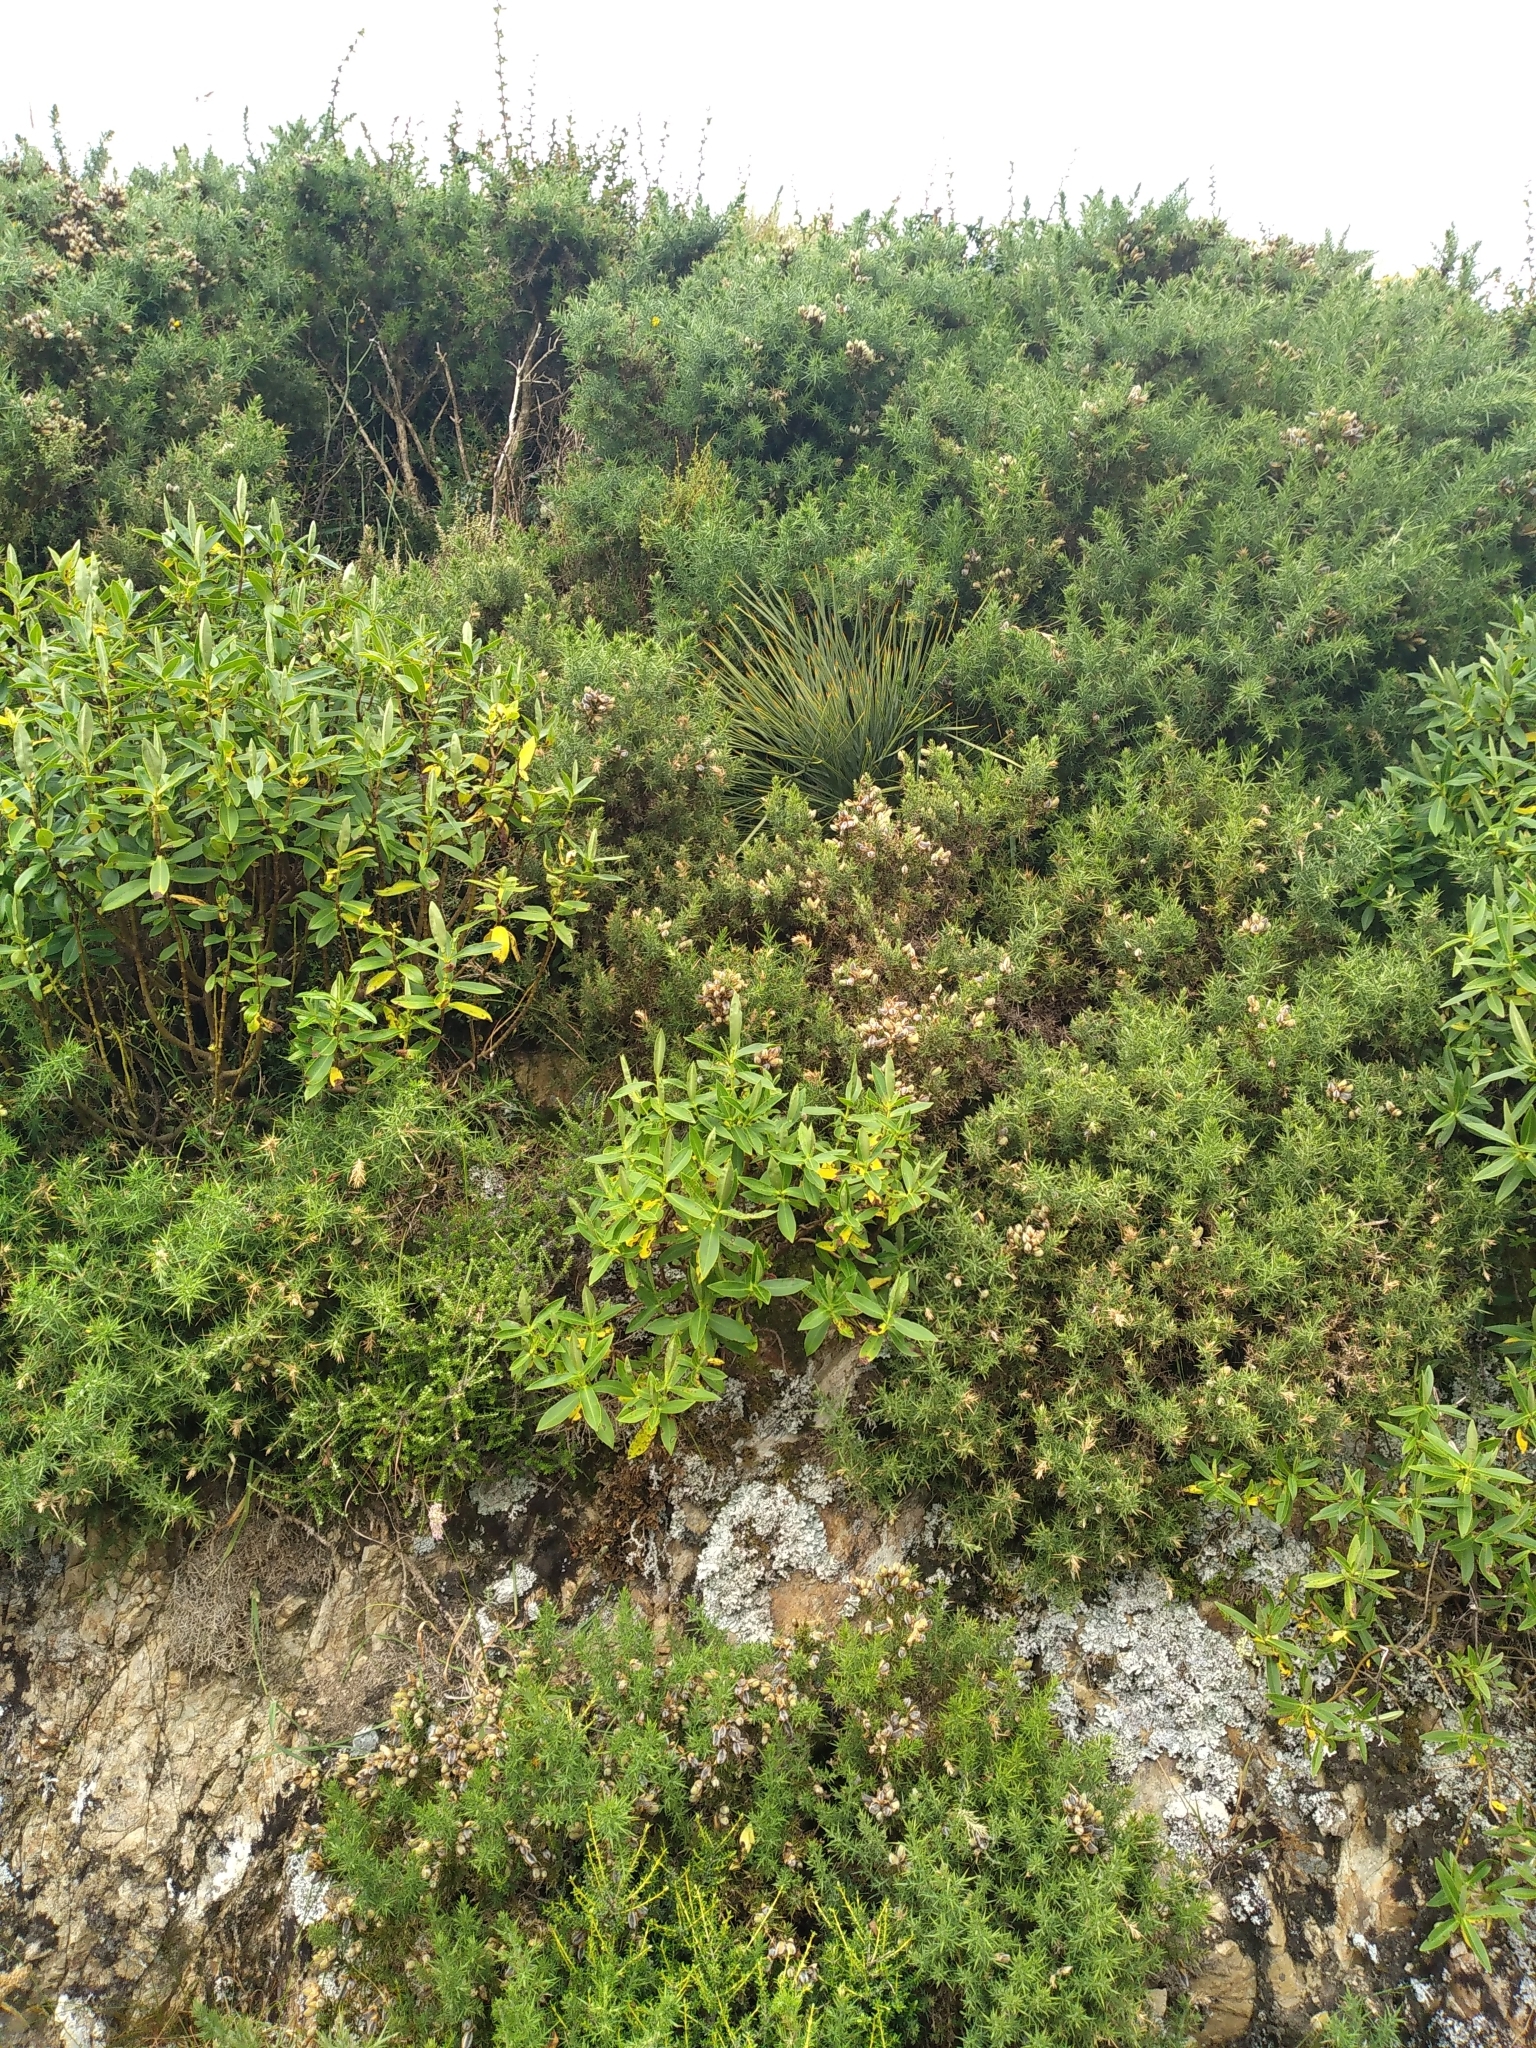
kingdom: Plantae
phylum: Tracheophyta
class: Magnoliopsida
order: Apiales
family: Apiaceae
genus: Aciphylla
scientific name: Aciphylla squarrosa
